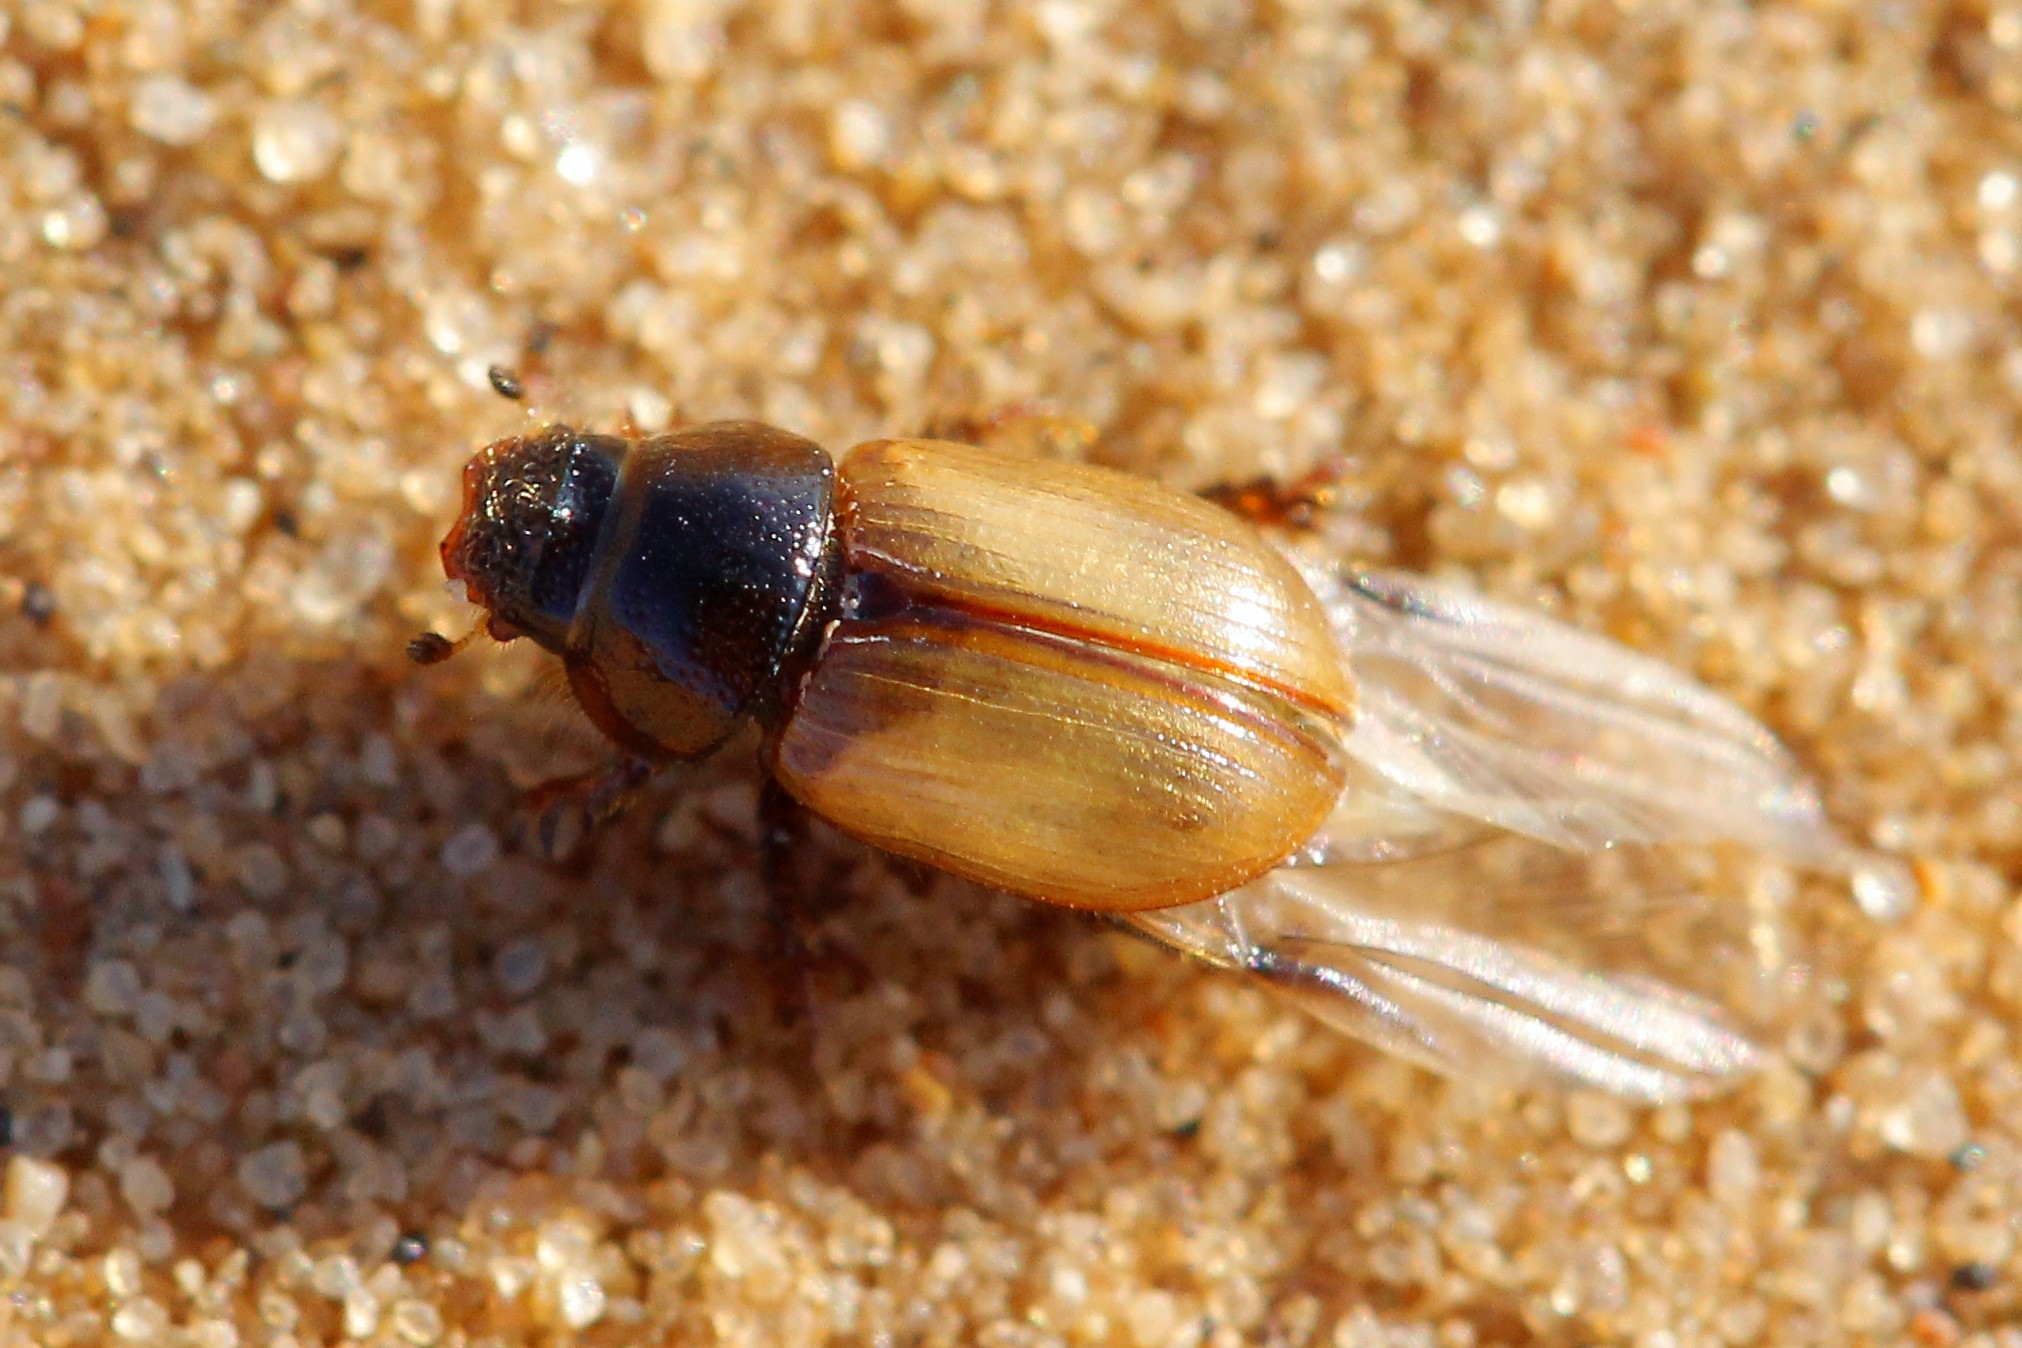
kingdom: Animalia
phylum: Arthropoda
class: Insecta
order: Coleoptera
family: Scarabaeidae
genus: Sugrames
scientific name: Sugrames hauseri
